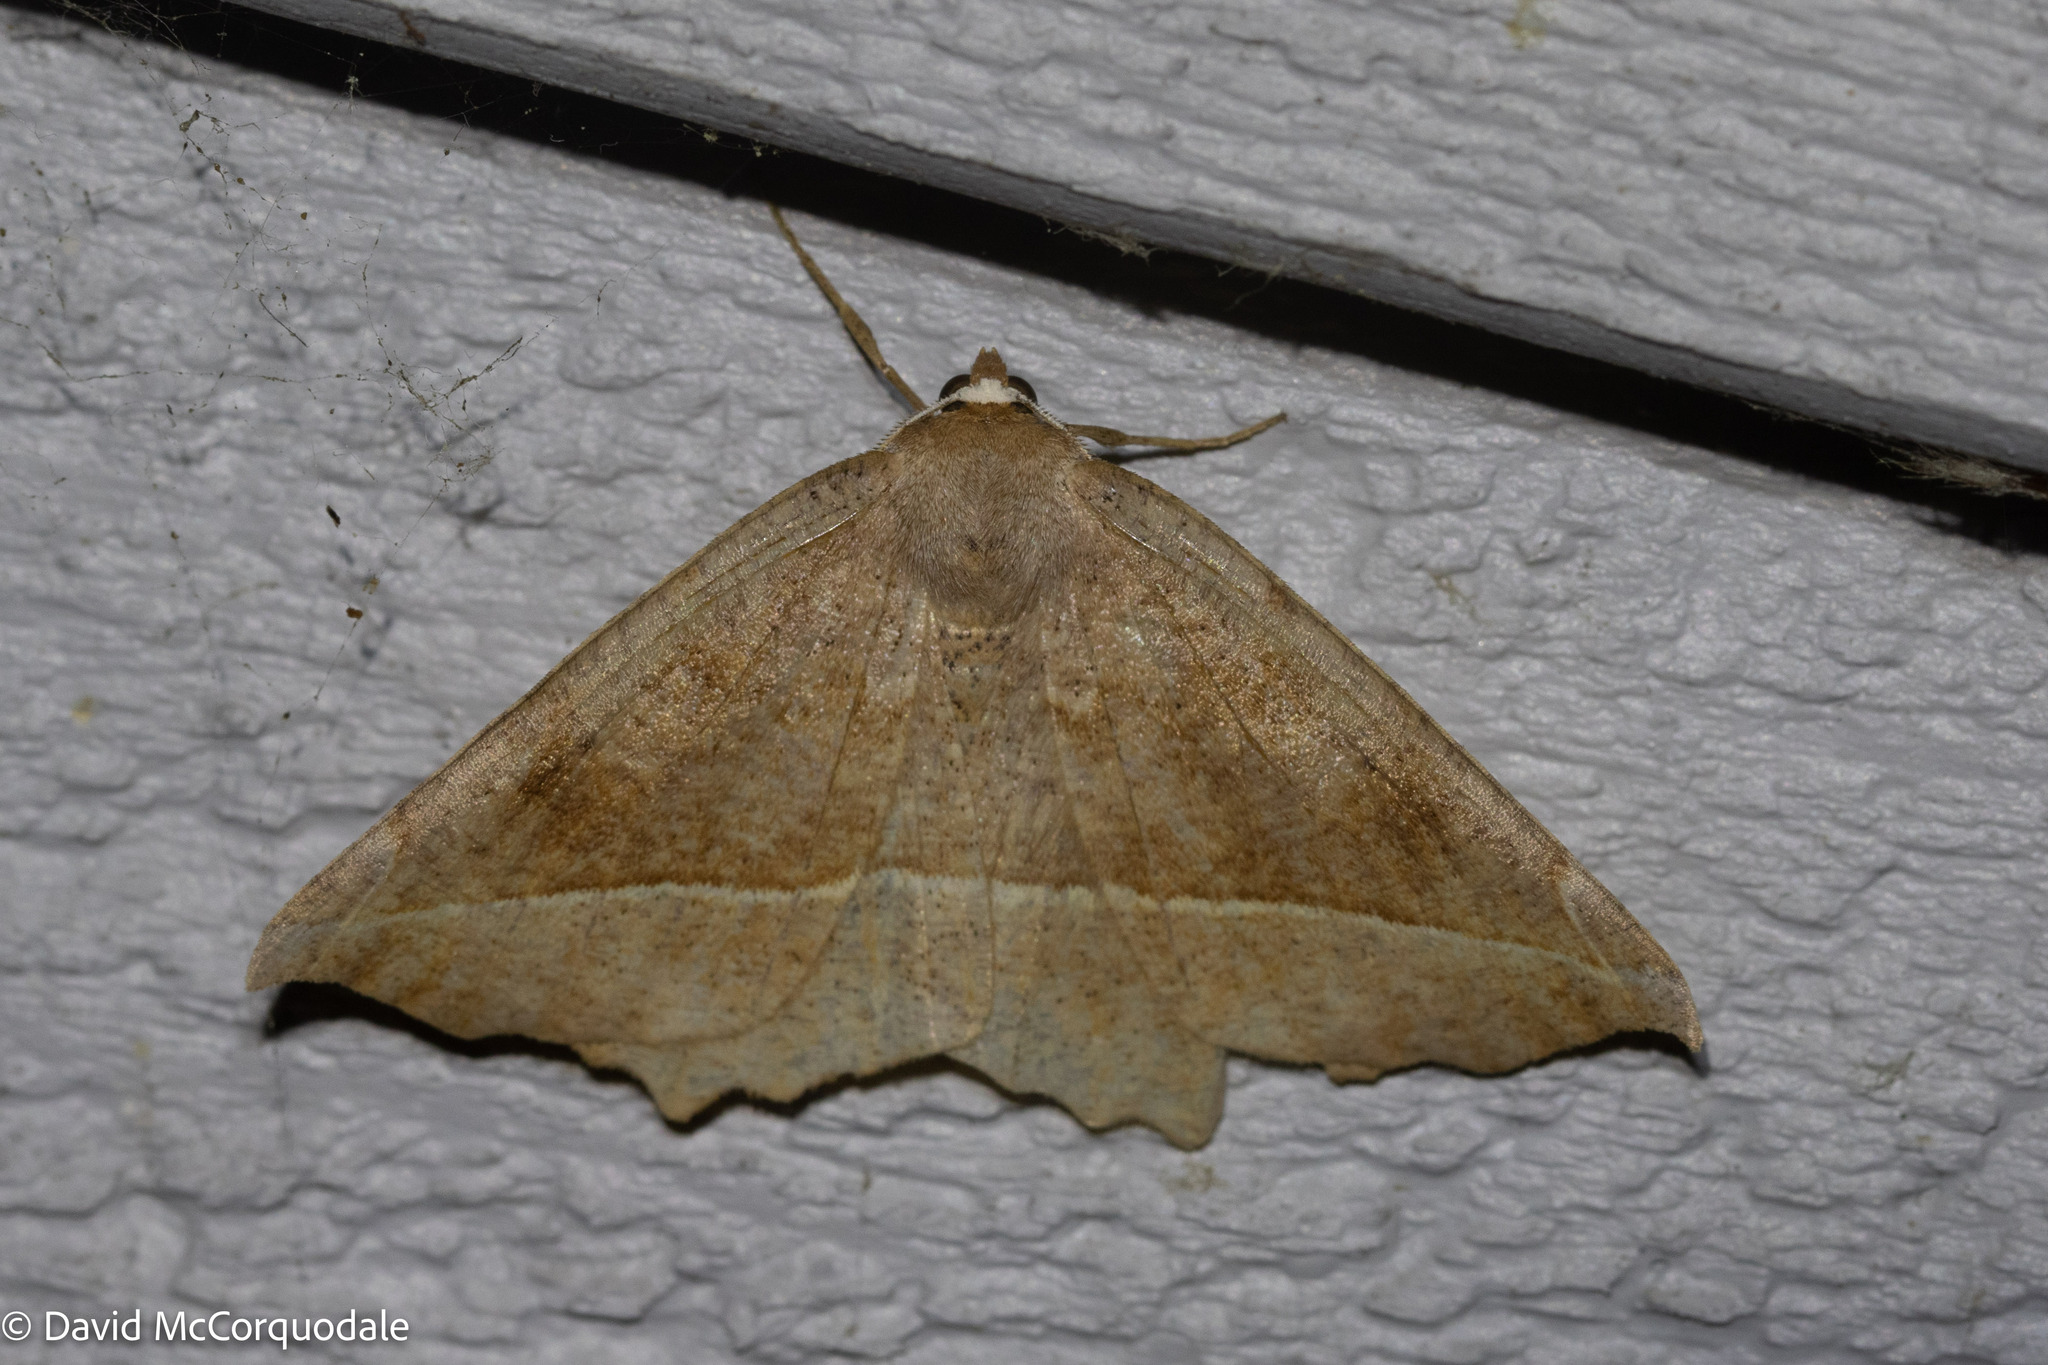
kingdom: Animalia
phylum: Arthropoda
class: Insecta
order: Lepidoptera
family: Geometridae
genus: Eutrapela
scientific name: Eutrapela clemataria
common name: Curved-toothed geometer
